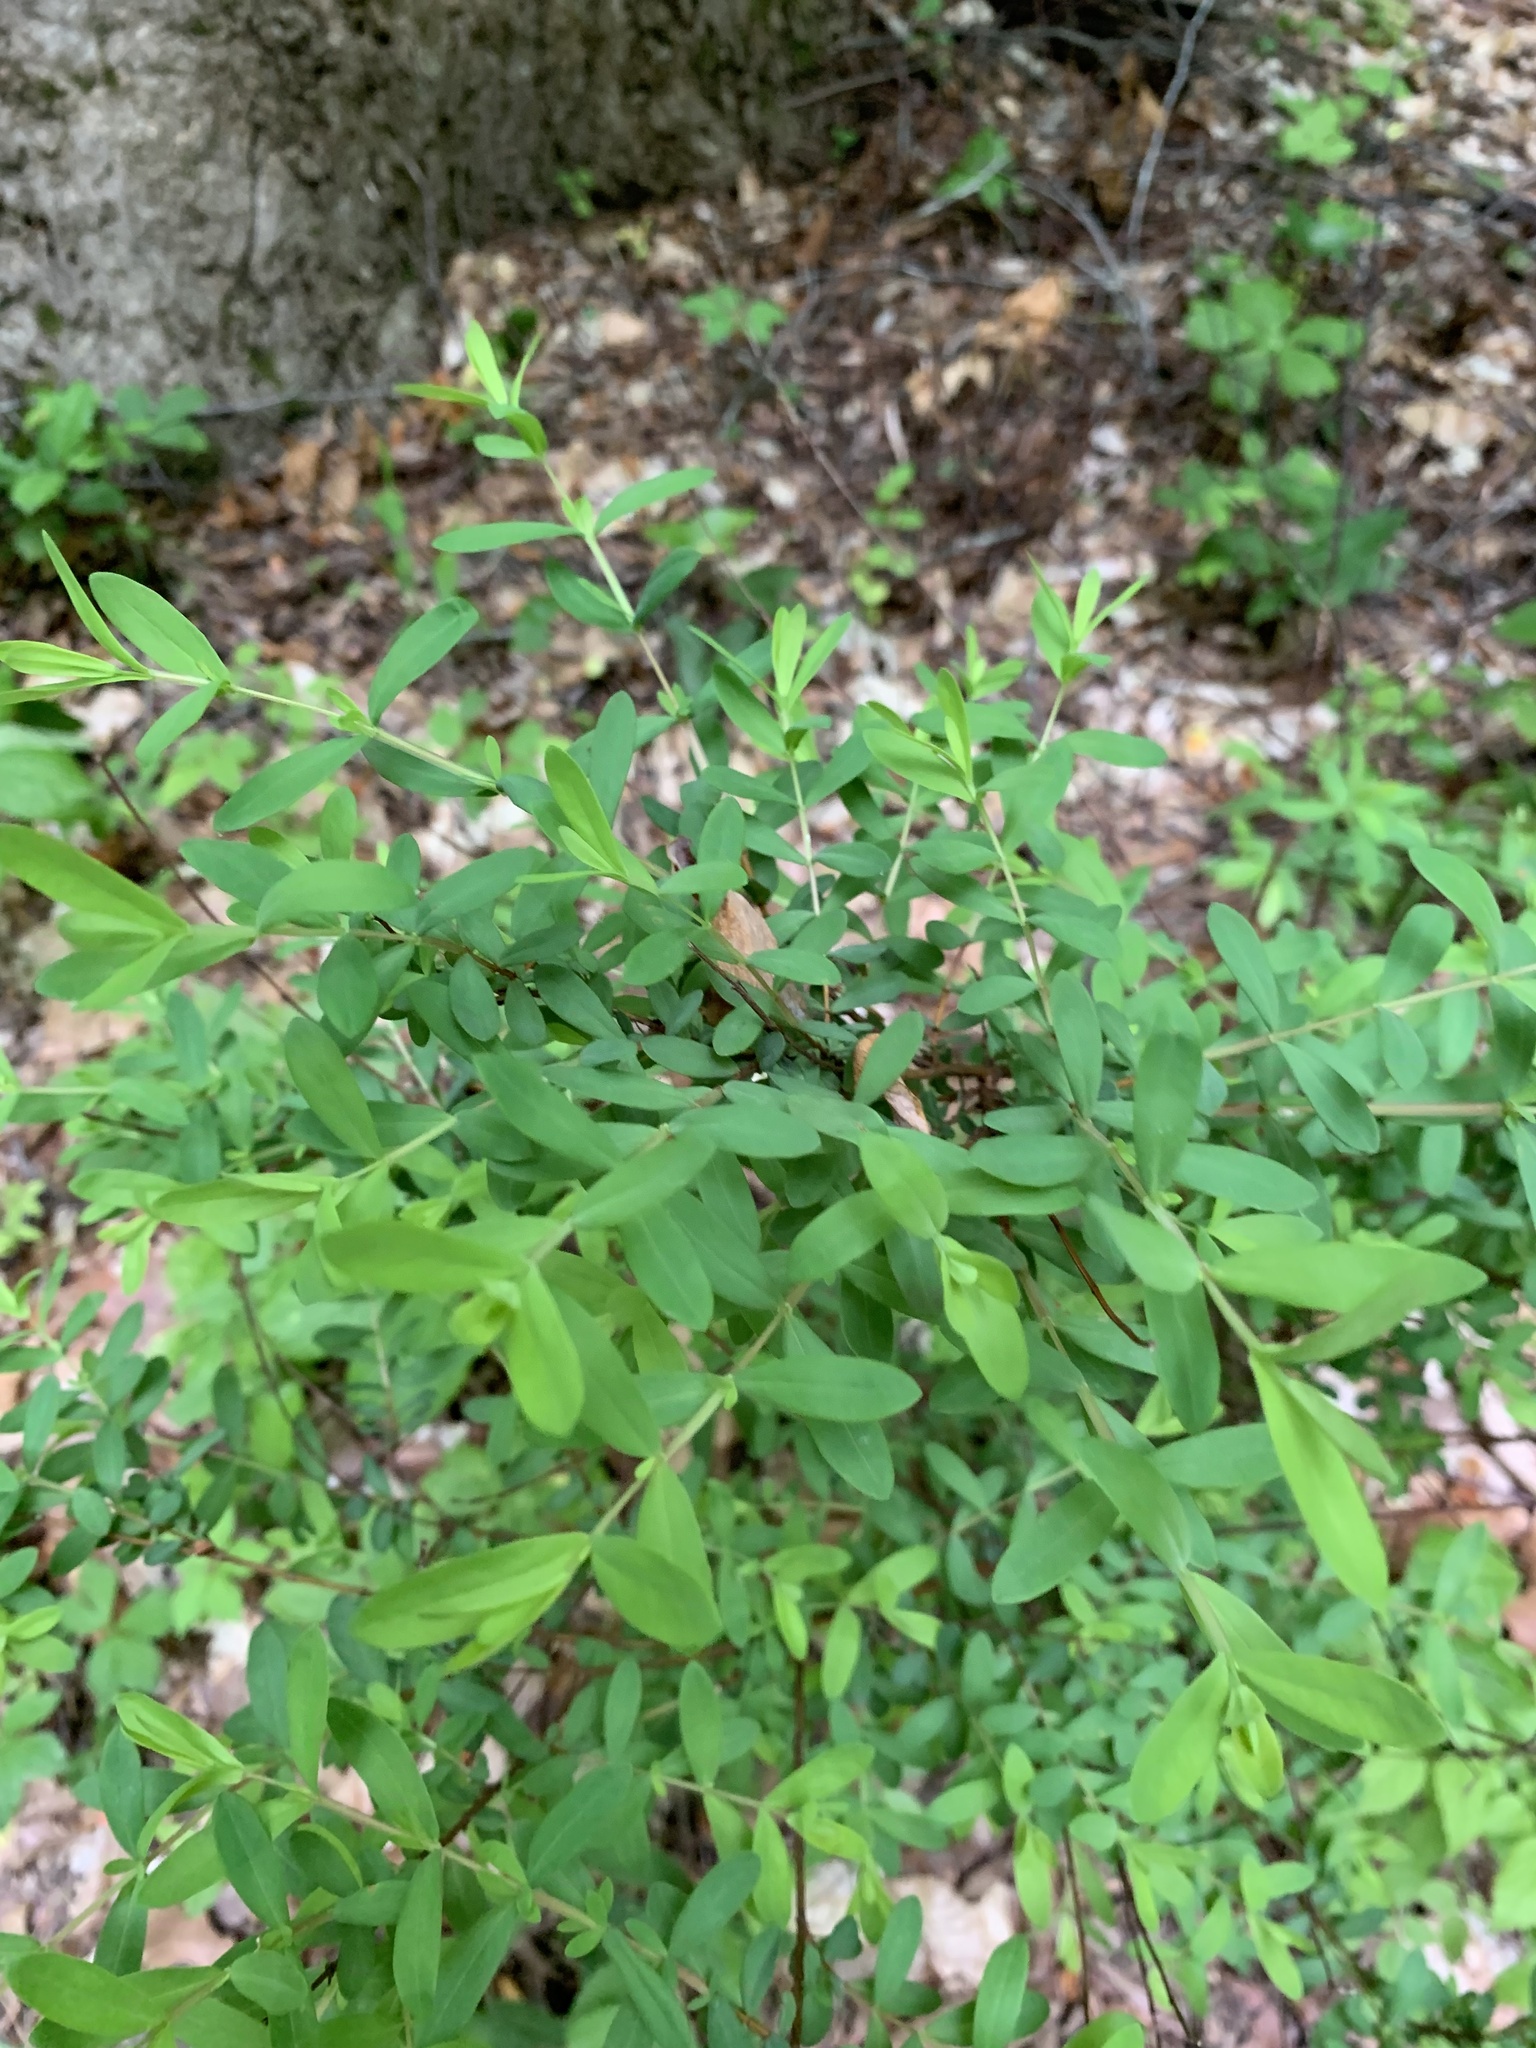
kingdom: Plantae
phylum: Tracheophyta
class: Magnoliopsida
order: Malpighiales
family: Hypericaceae
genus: Hypericum
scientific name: Hypericum hypericoides
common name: St. andrew's cross
